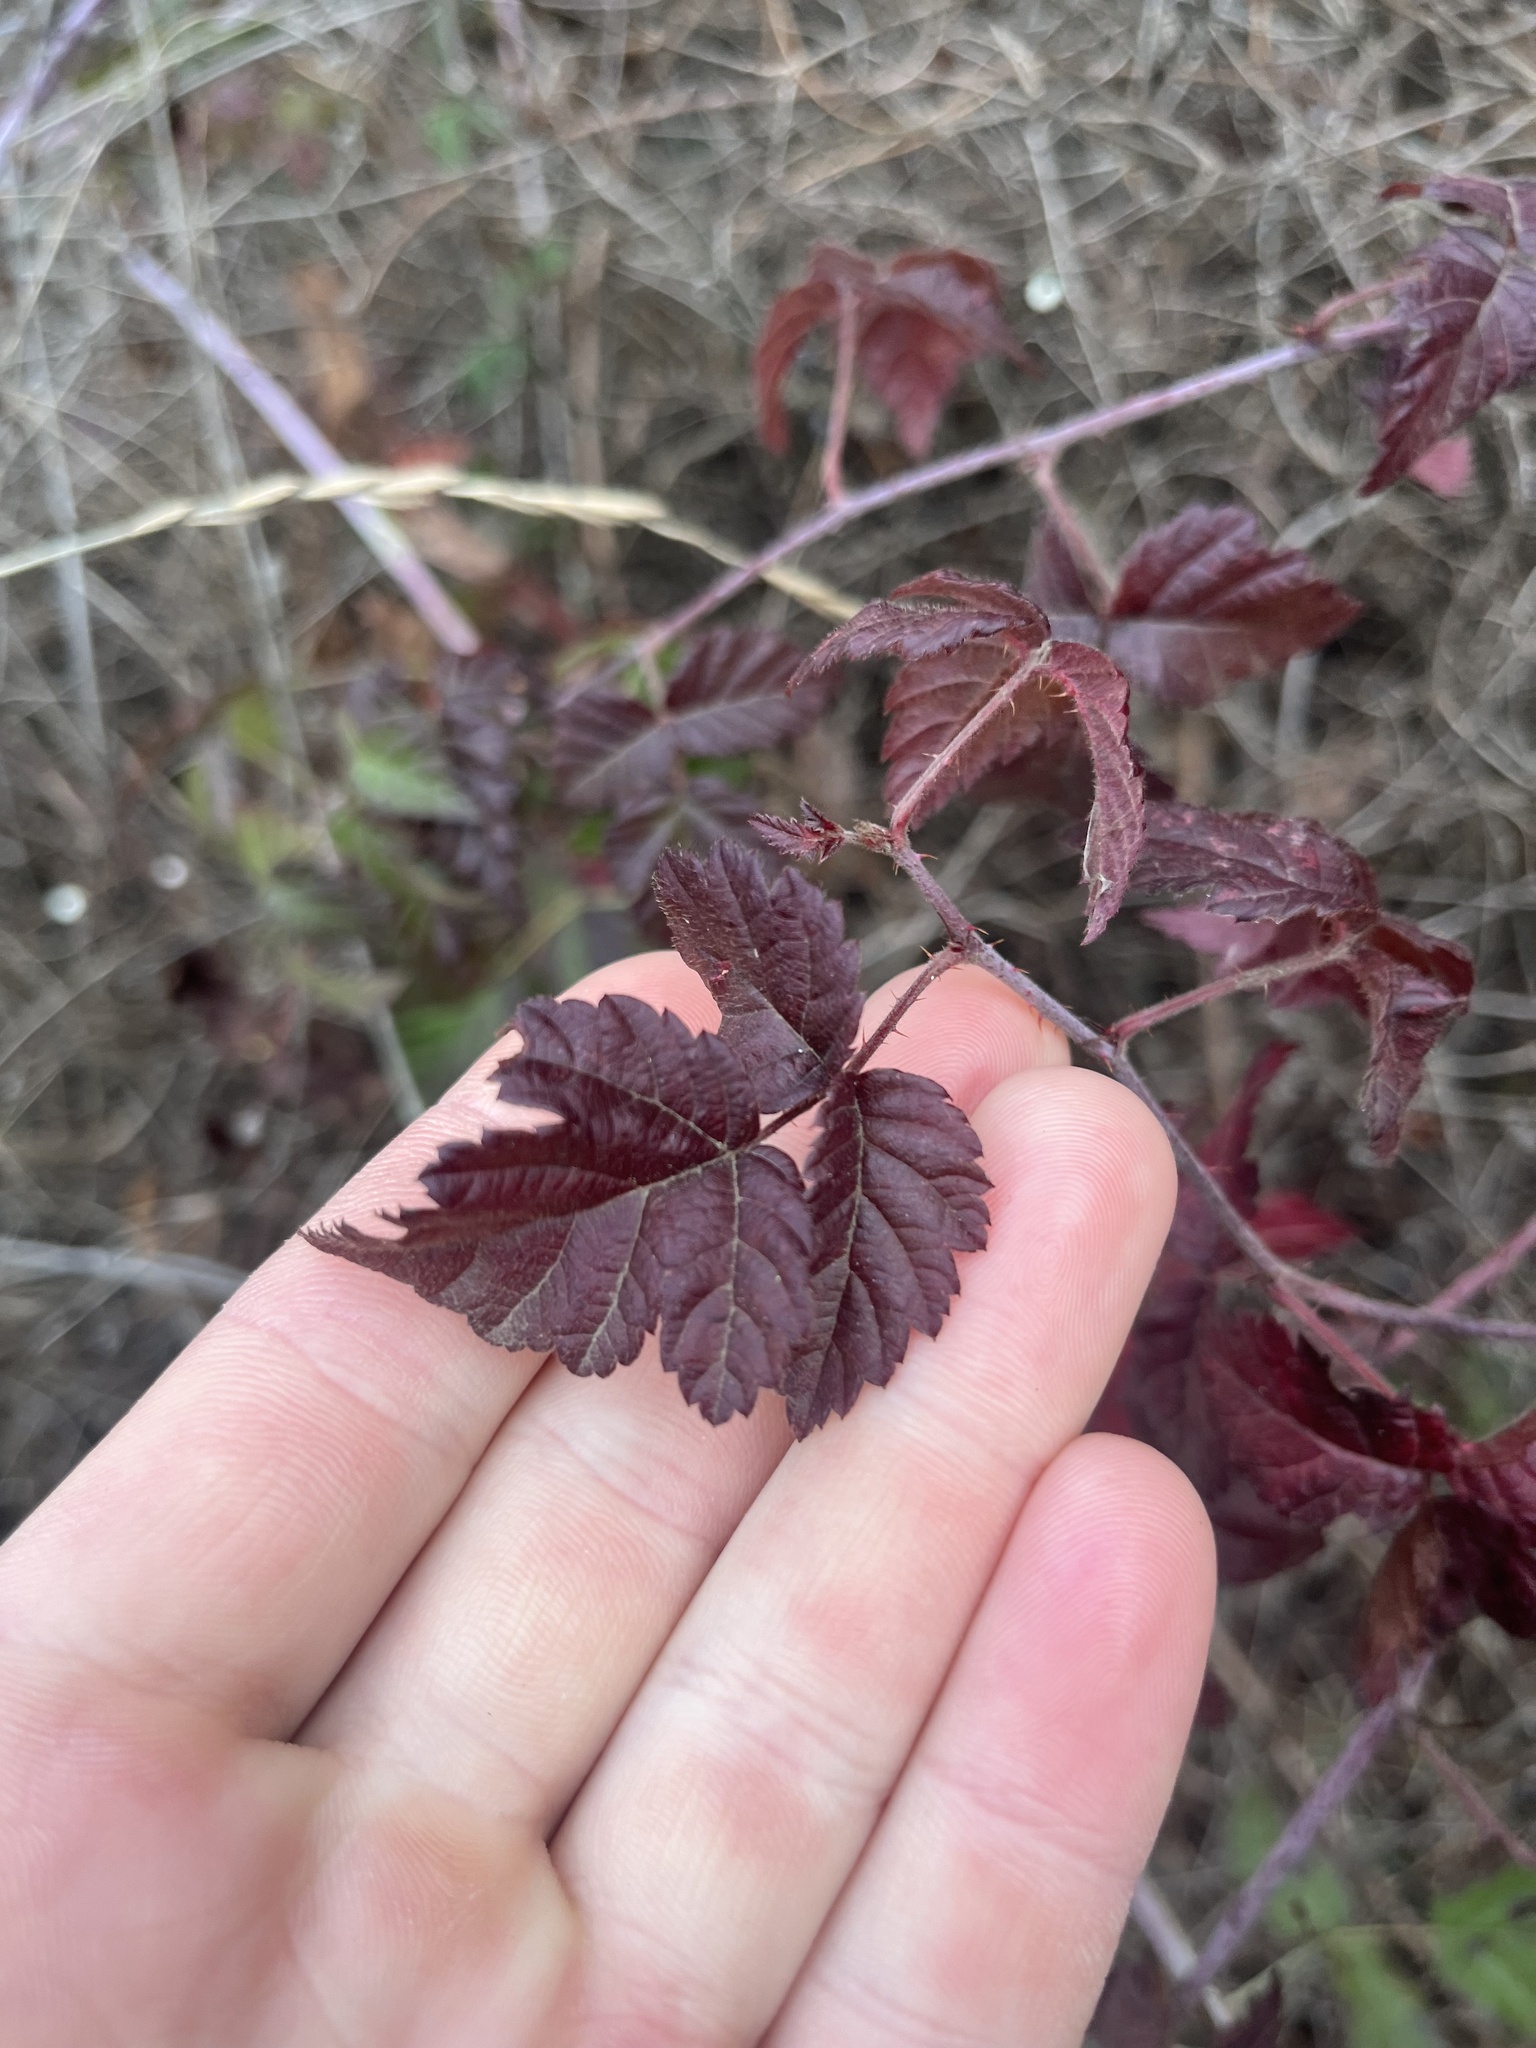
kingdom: Plantae
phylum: Tracheophyta
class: Magnoliopsida
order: Rosales
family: Rosaceae
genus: Rubus
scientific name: Rubus ursinus
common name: Pacific blackberry
